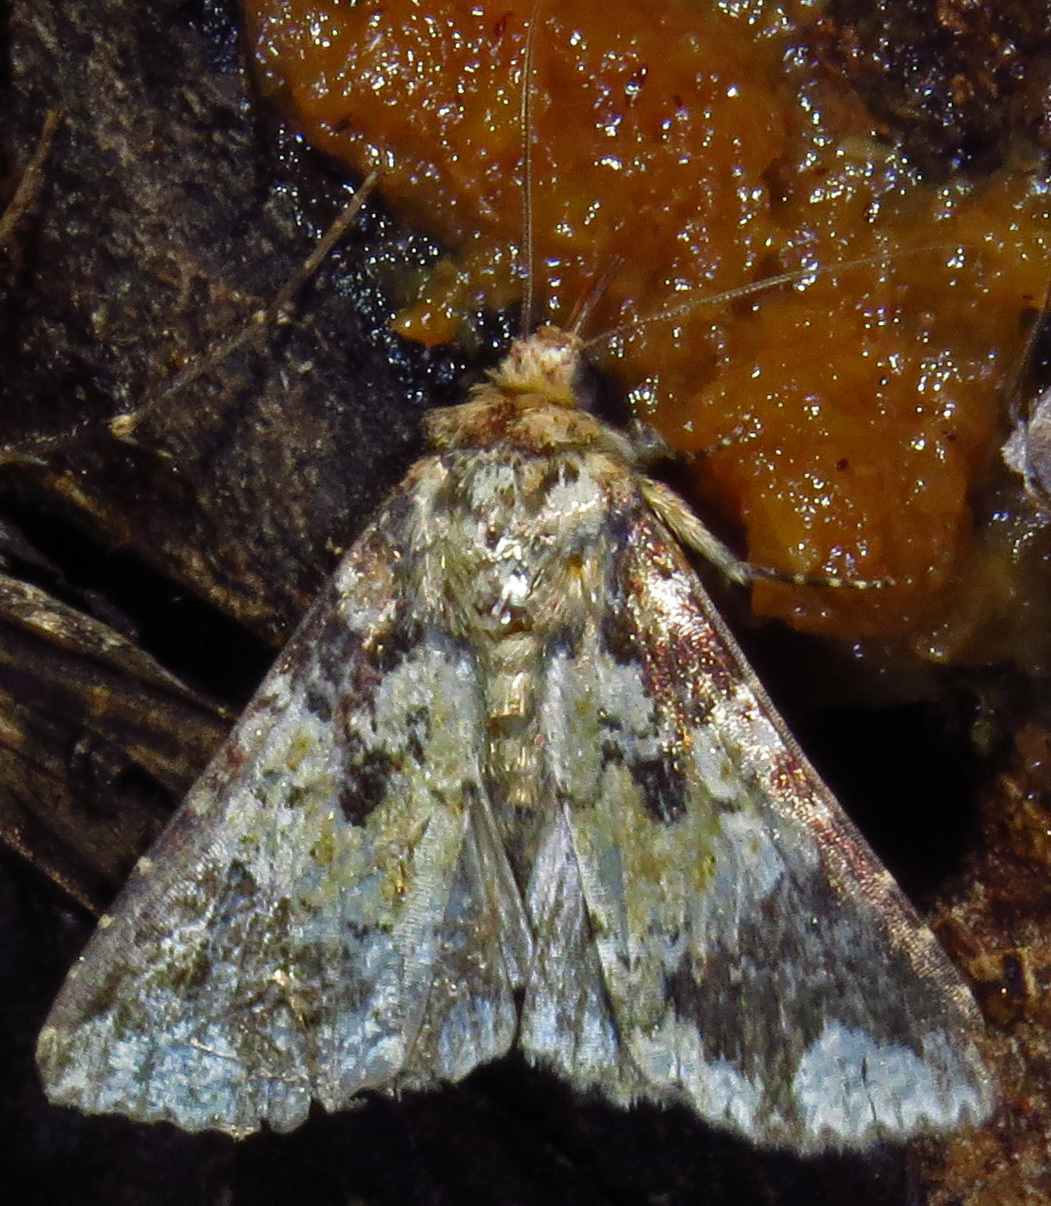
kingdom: Animalia
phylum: Arthropoda
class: Insecta
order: Lepidoptera
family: Noctuidae
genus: Condica
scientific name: Condica confederata
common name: The confederate
